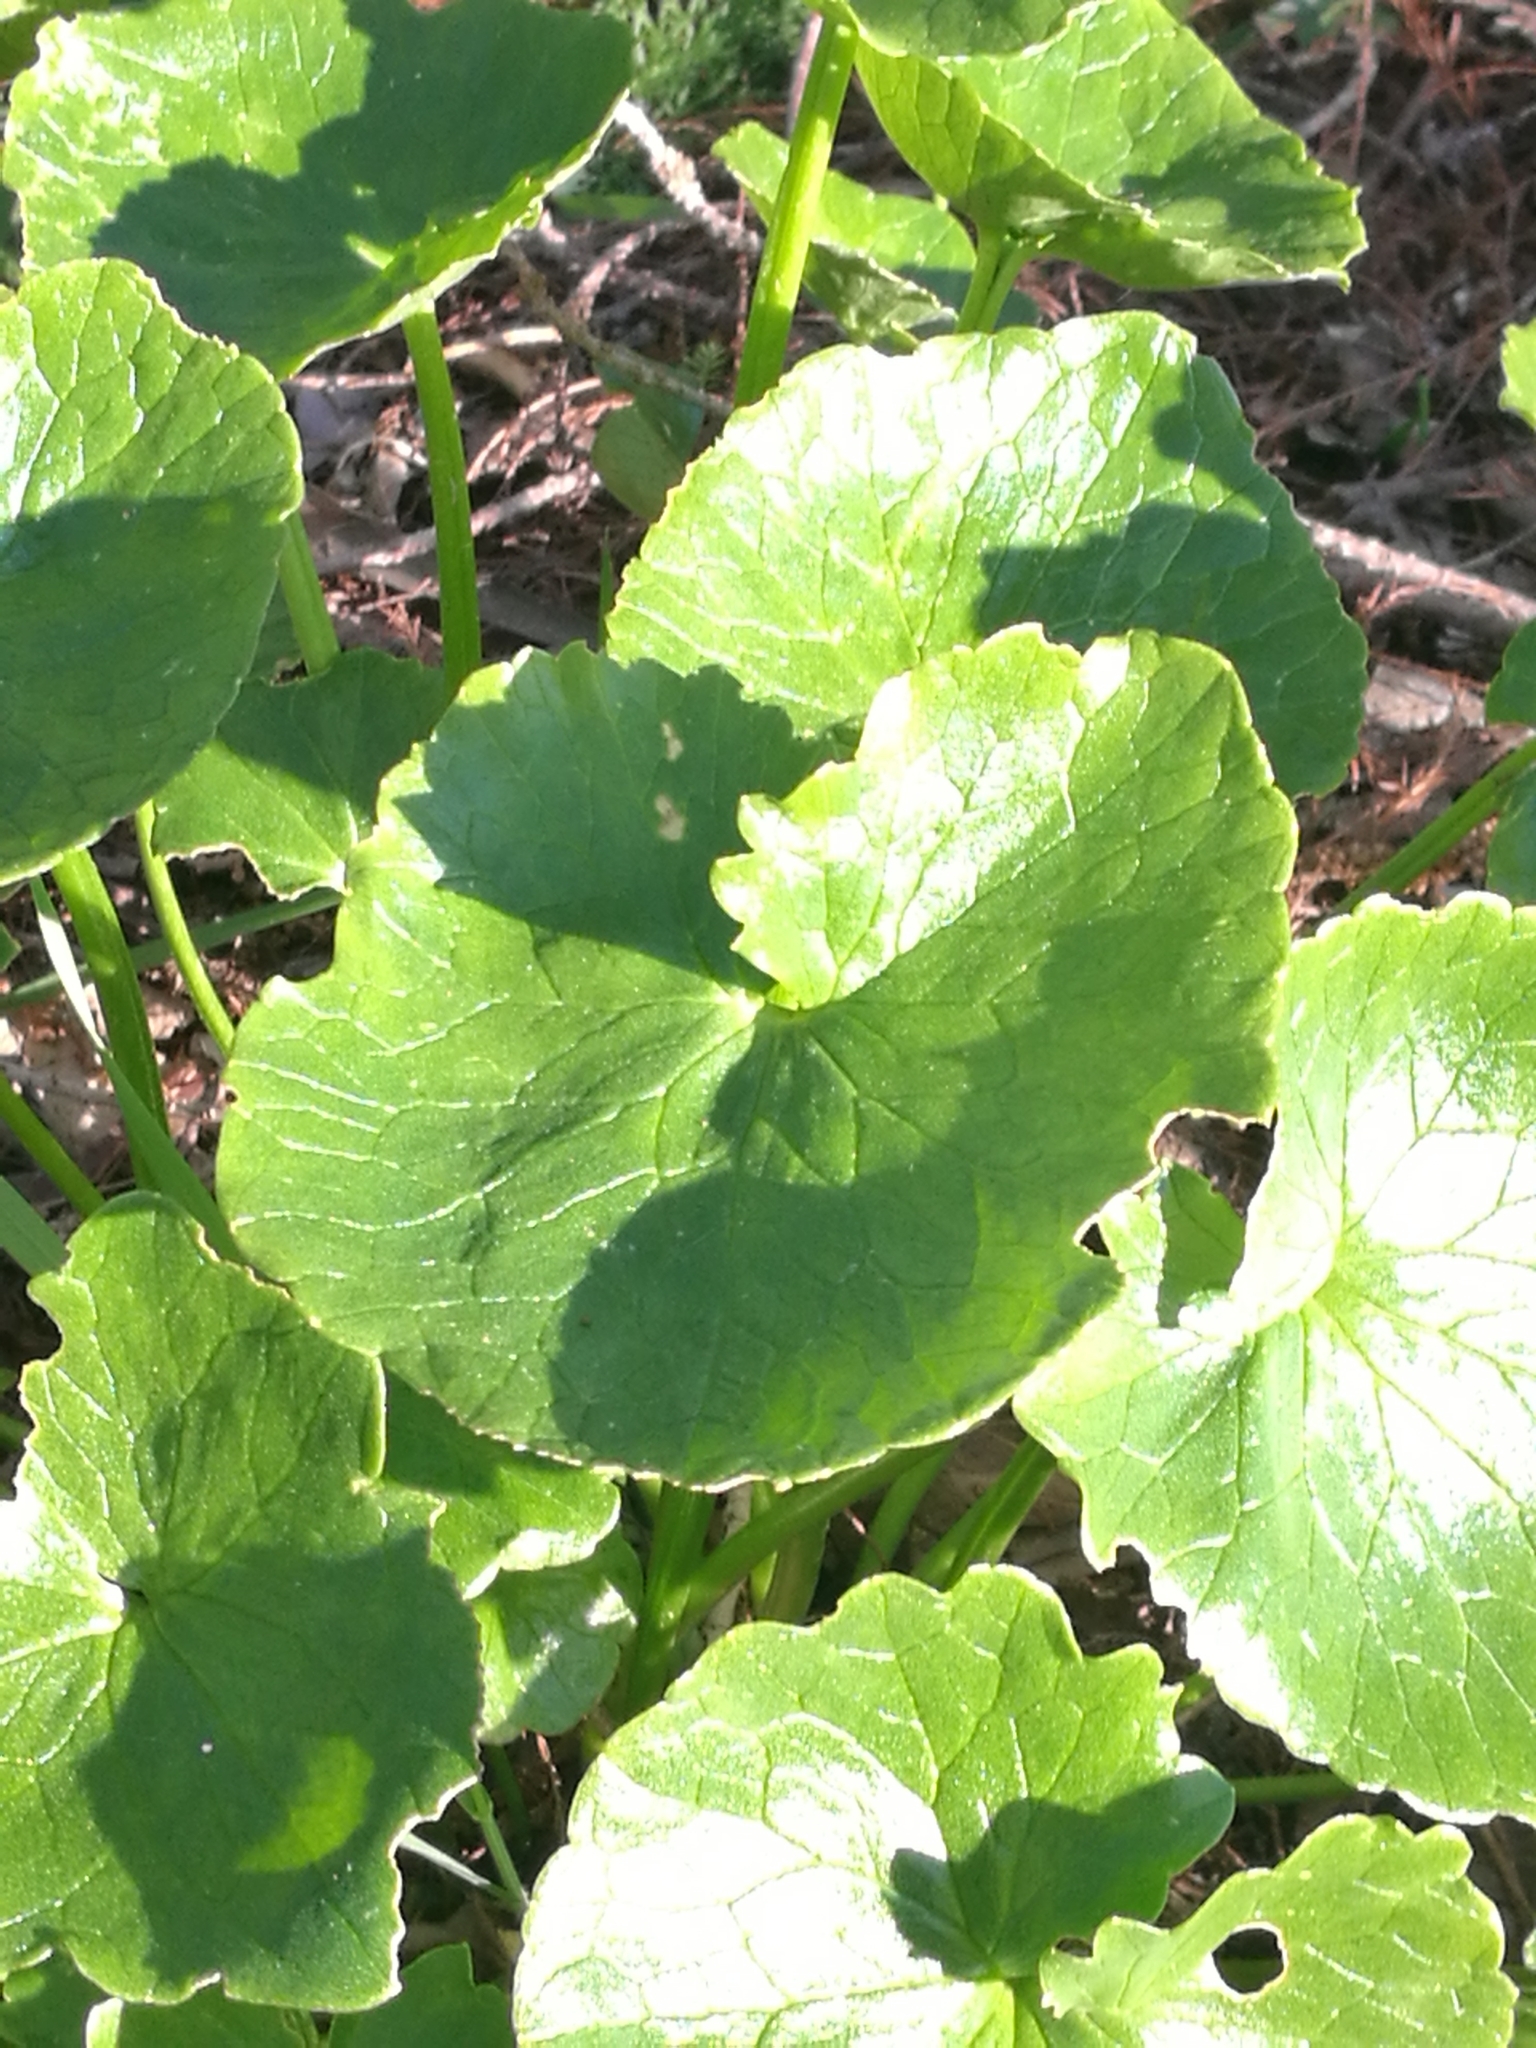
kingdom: Plantae
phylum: Tracheophyta
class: Magnoliopsida
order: Ranunculales
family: Ranunculaceae
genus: Ficaria
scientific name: Ficaria verna
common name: Lesser celandine
